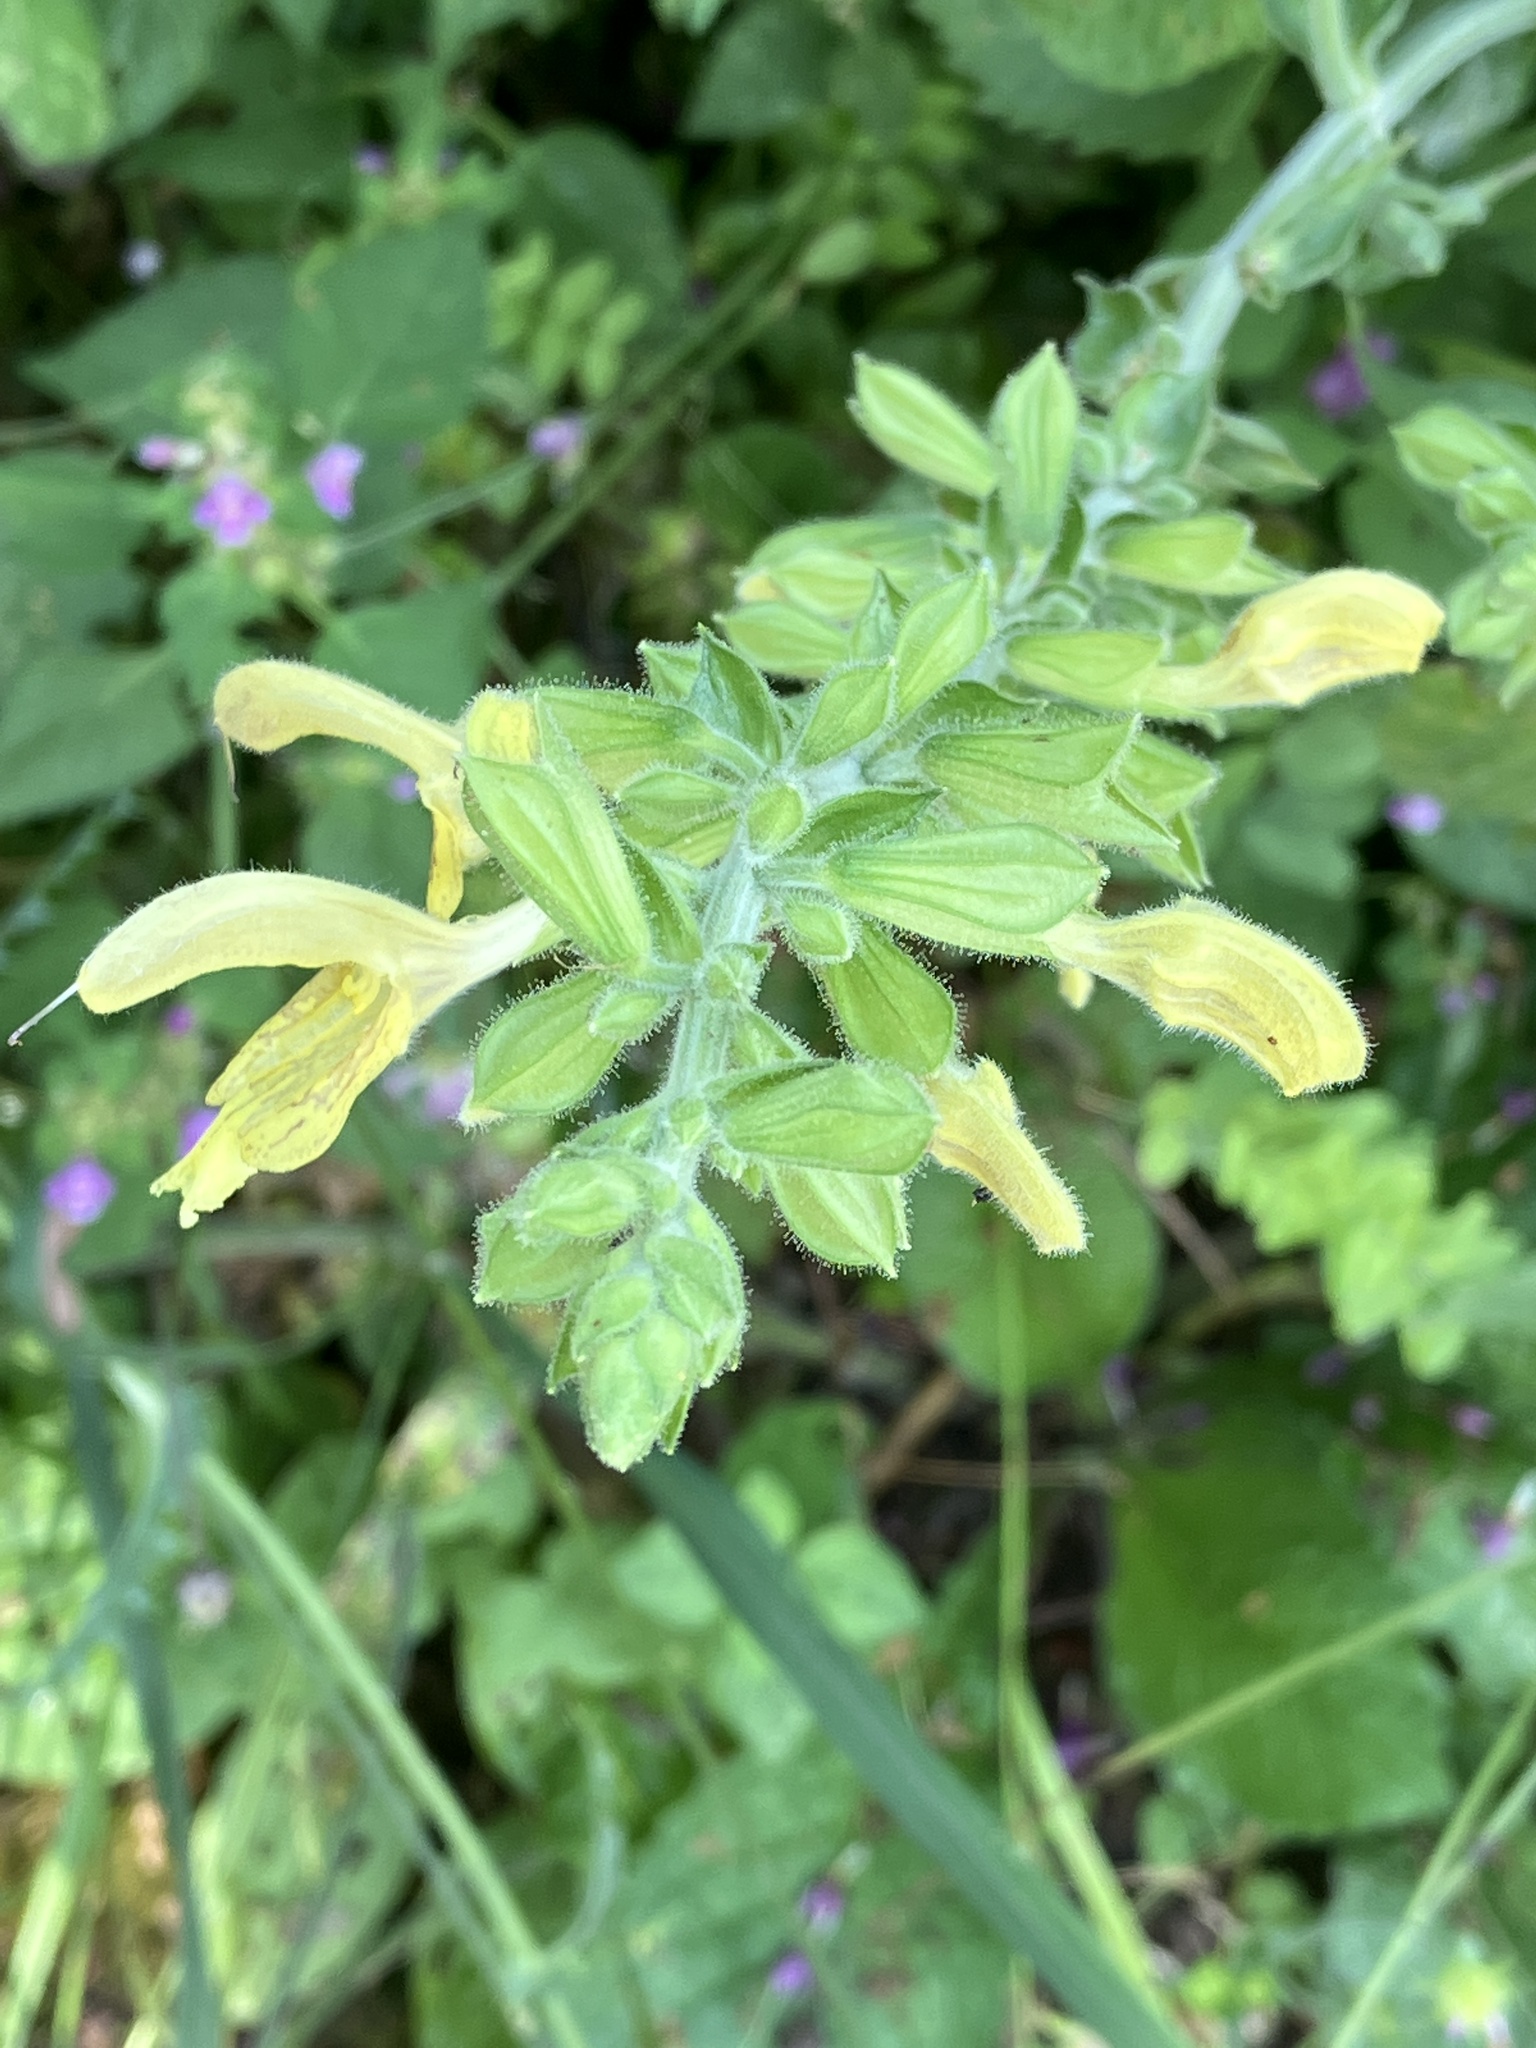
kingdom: Plantae
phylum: Tracheophyta
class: Magnoliopsida
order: Lamiales
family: Lamiaceae
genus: Salvia
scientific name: Salvia glutinosa
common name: Sticky clary
